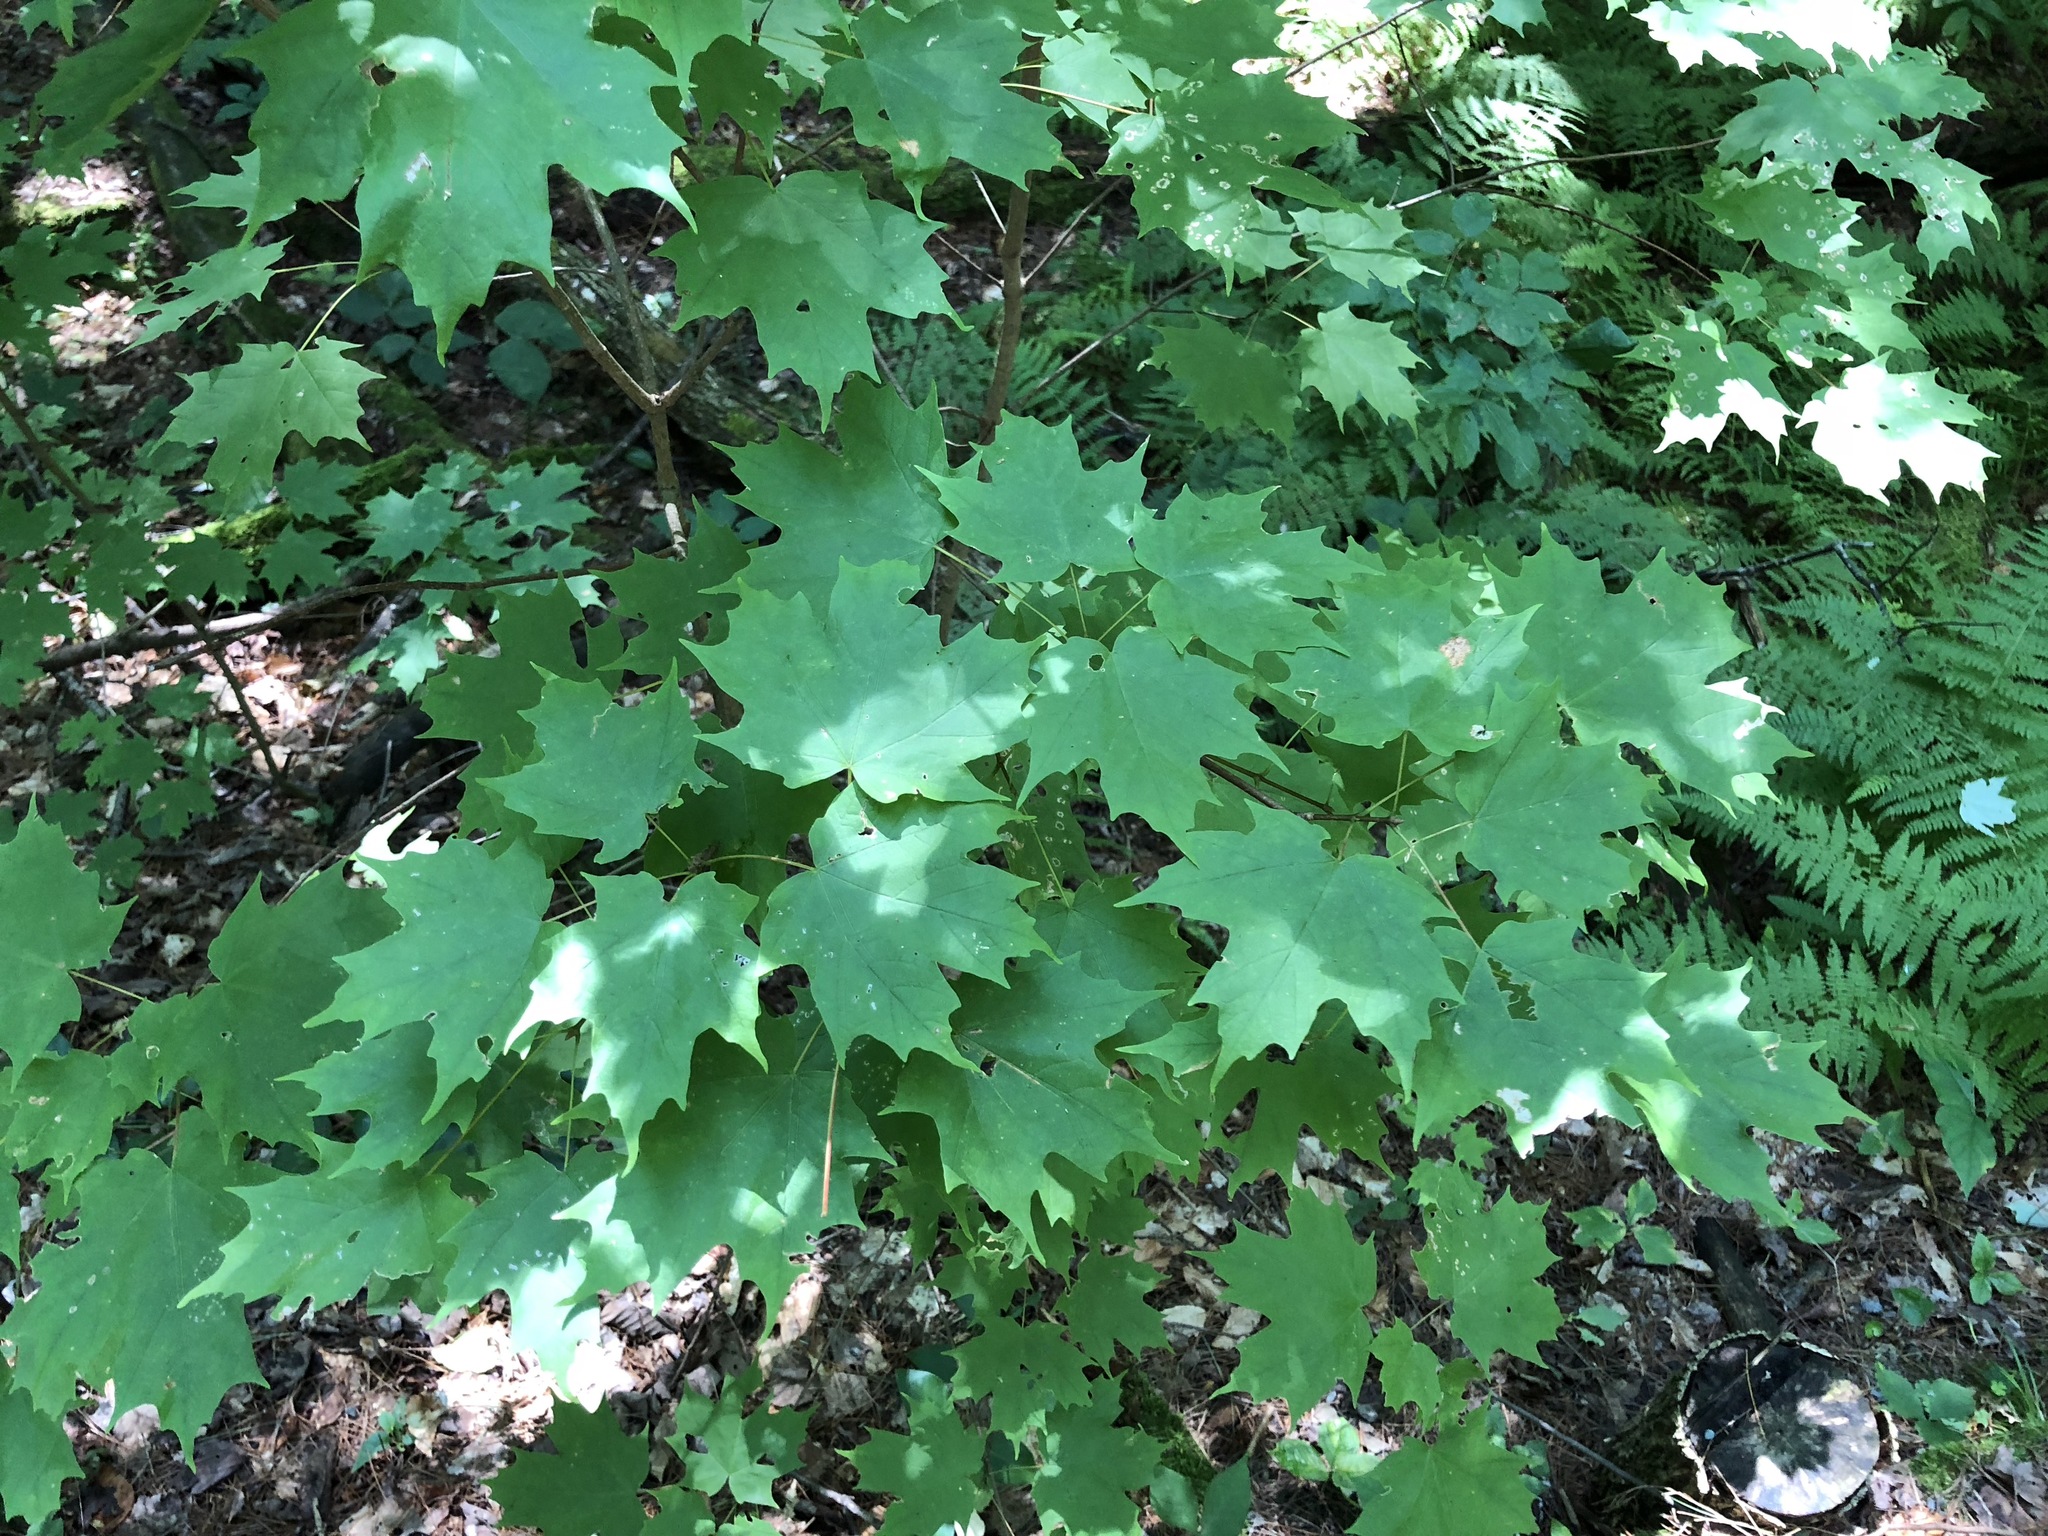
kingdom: Plantae
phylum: Tracheophyta
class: Magnoliopsida
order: Sapindales
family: Sapindaceae
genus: Acer
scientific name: Acer saccharum
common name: Sugar maple
